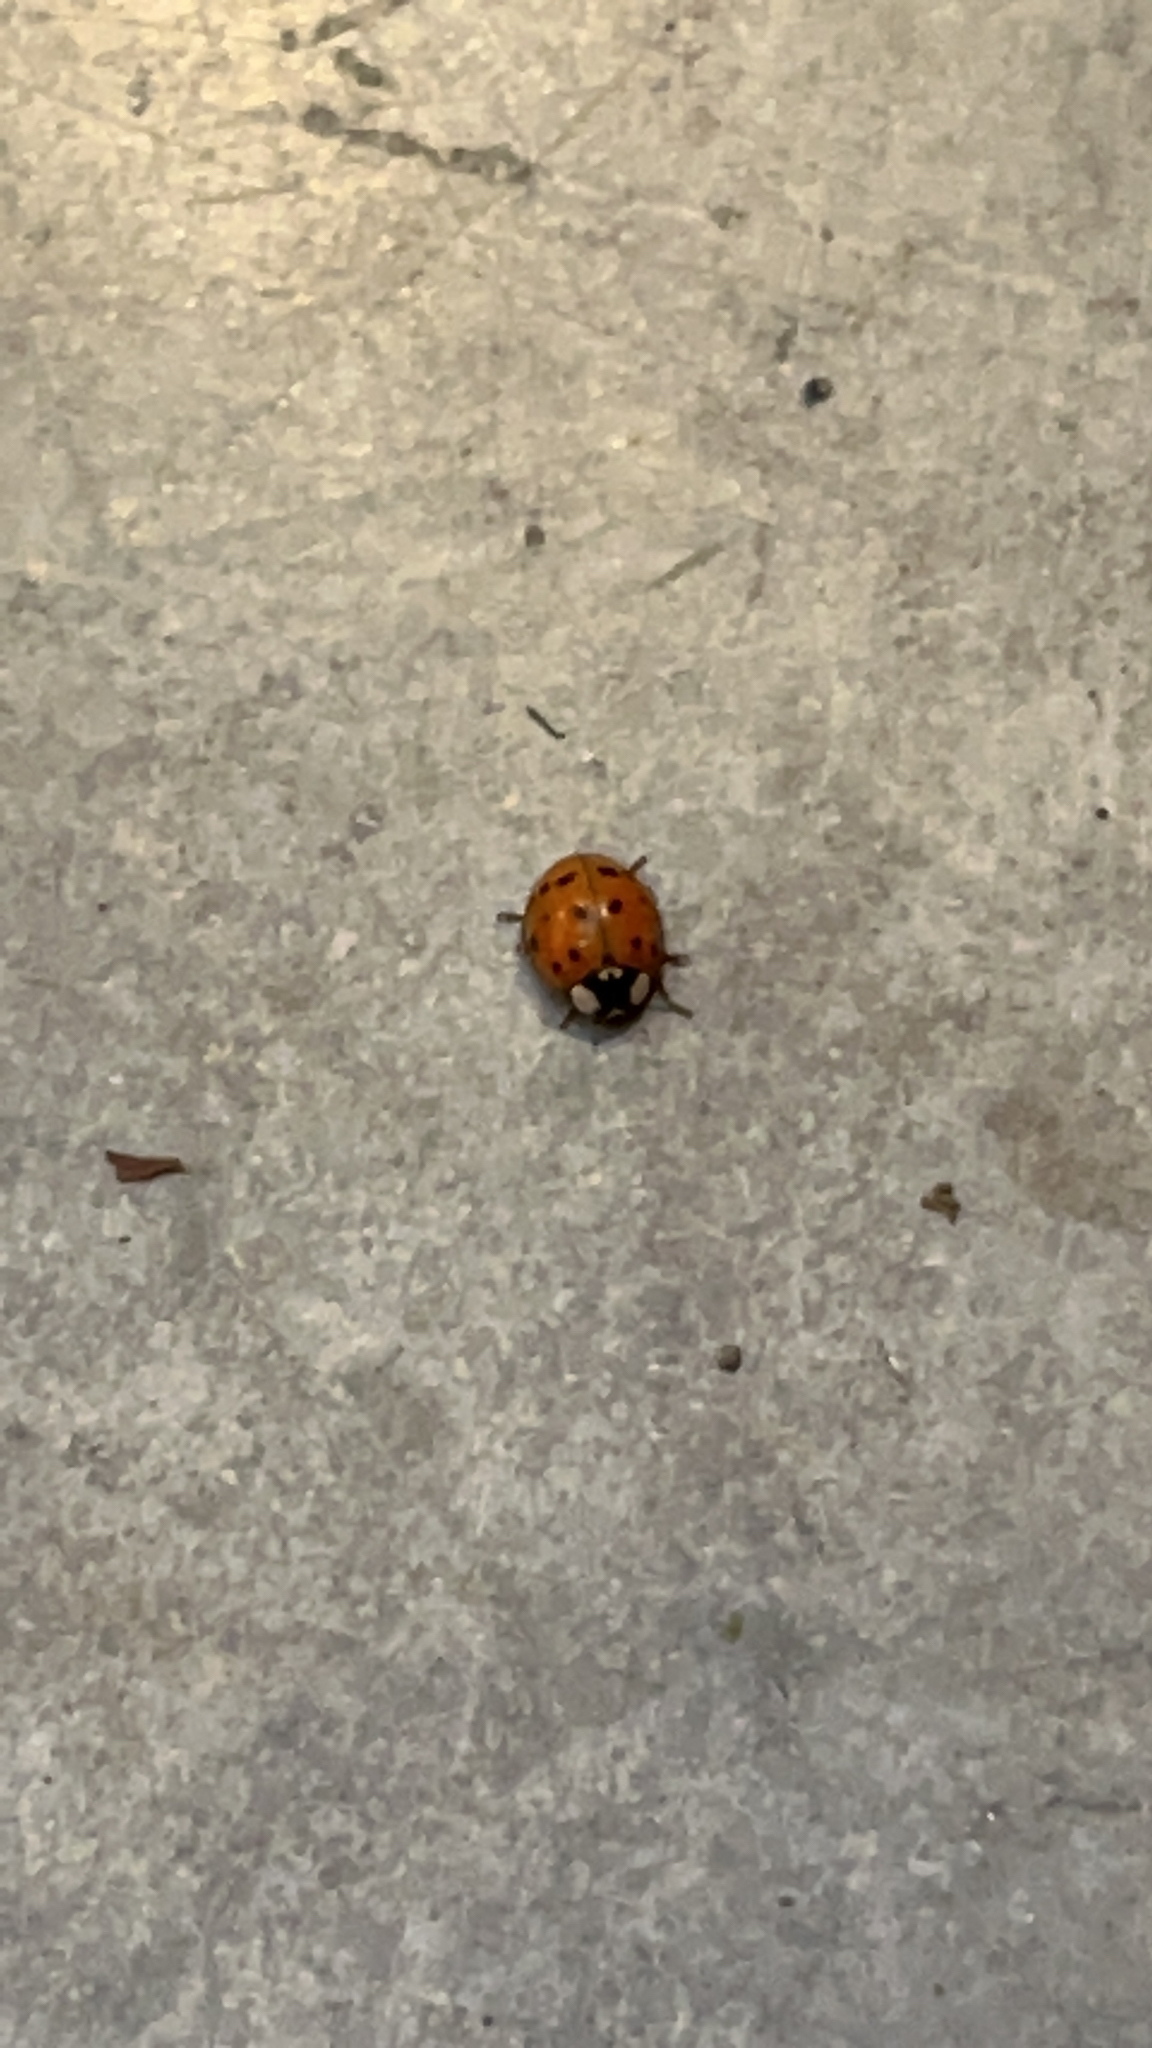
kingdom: Animalia
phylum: Arthropoda
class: Insecta
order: Coleoptera
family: Coccinellidae
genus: Harmonia
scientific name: Harmonia axyridis
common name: Harlequin ladybird
